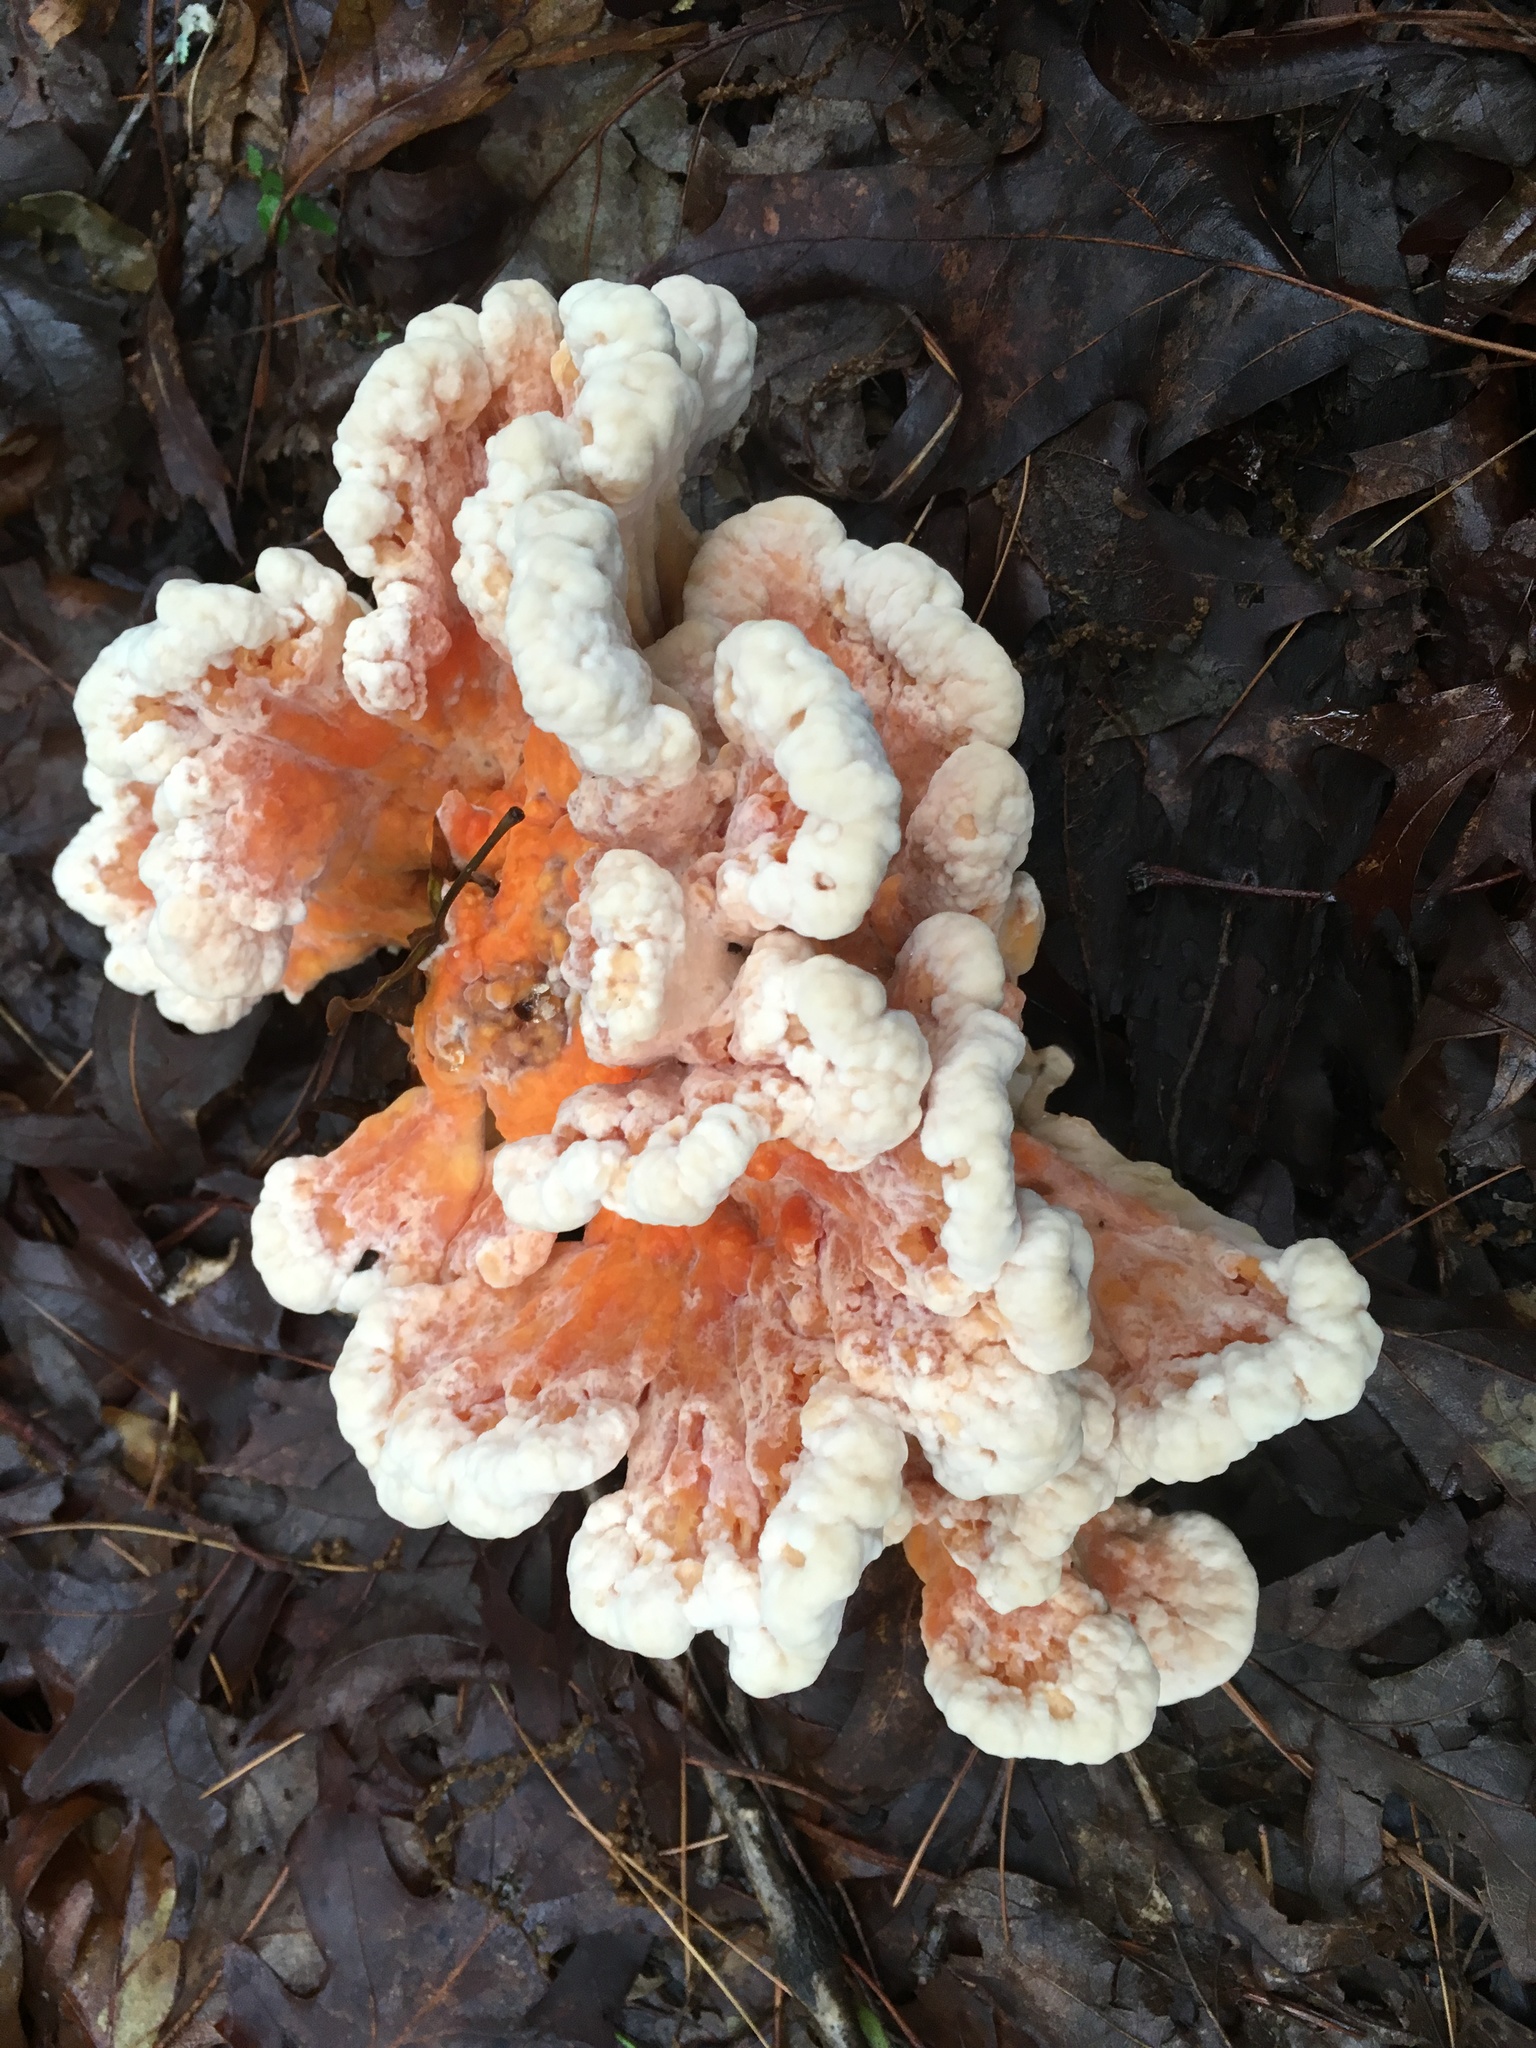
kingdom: Fungi
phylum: Basidiomycota
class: Agaricomycetes
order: Polyporales
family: Laetiporaceae
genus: Laetiporus
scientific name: Laetiporus sulphureus
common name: Chicken of the woods
